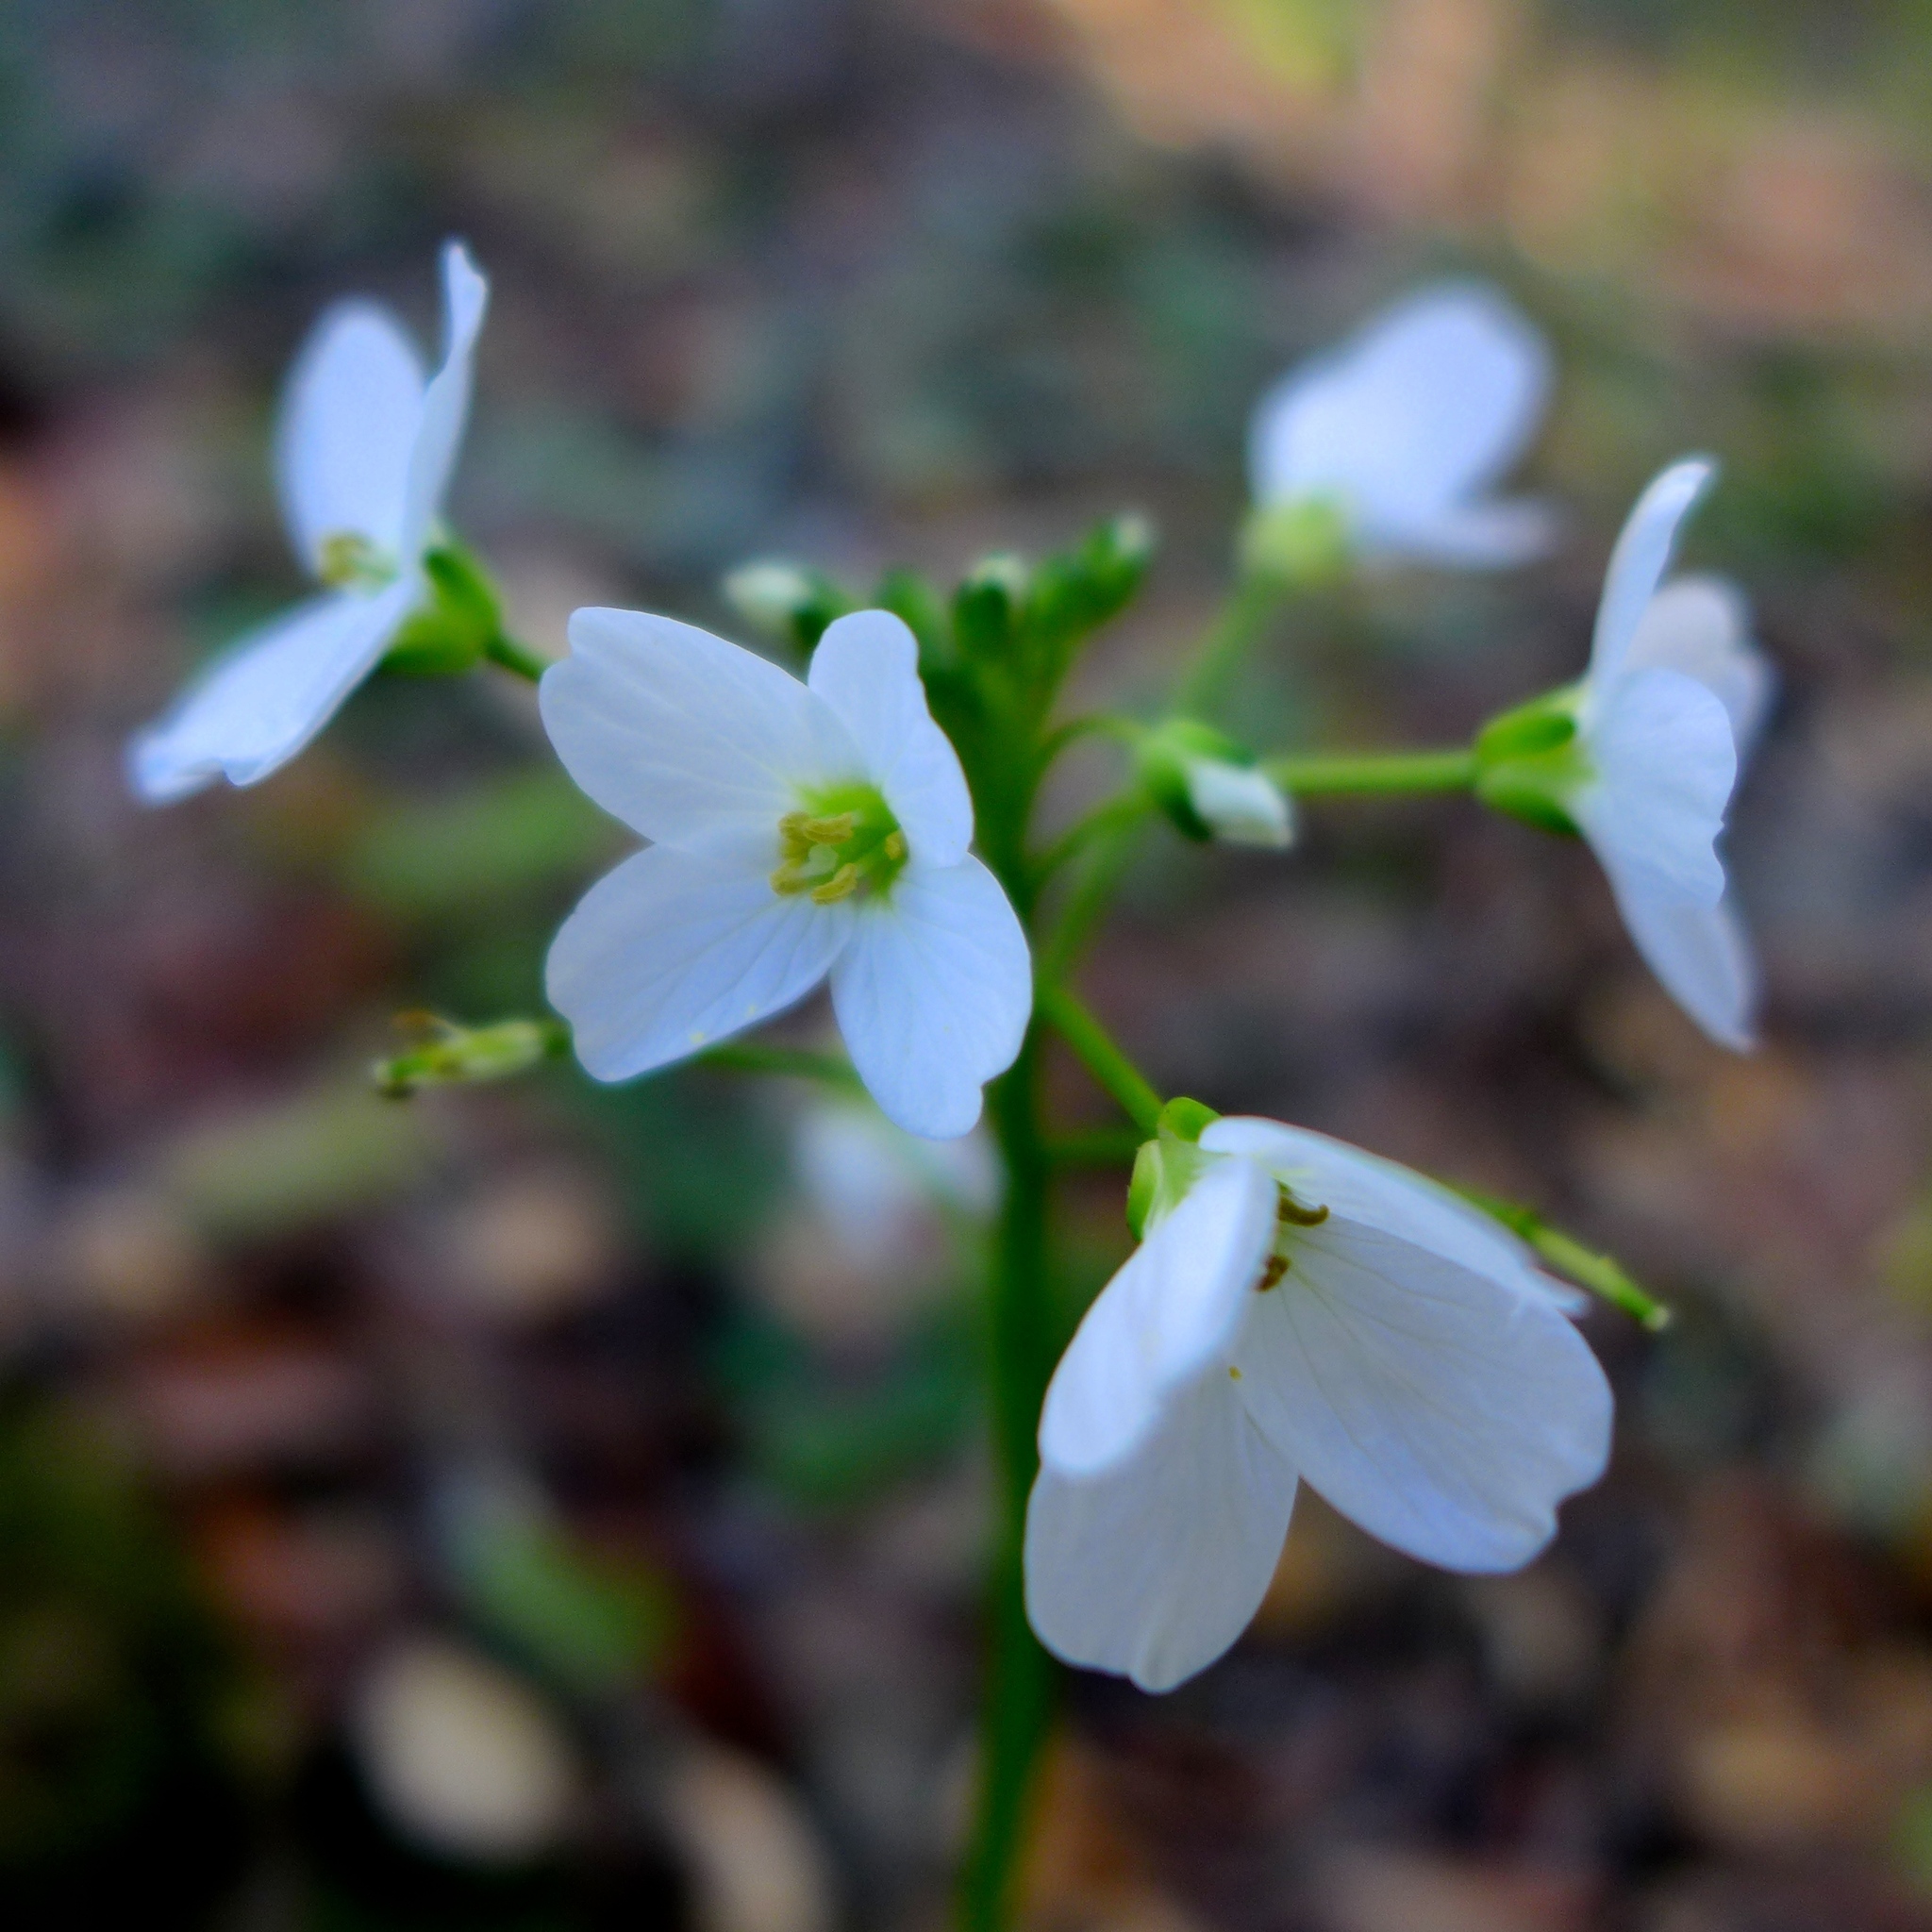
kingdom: Plantae
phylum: Tracheophyta
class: Magnoliopsida
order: Brassicales
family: Brassicaceae
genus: Cardamine
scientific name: Cardamine californica
